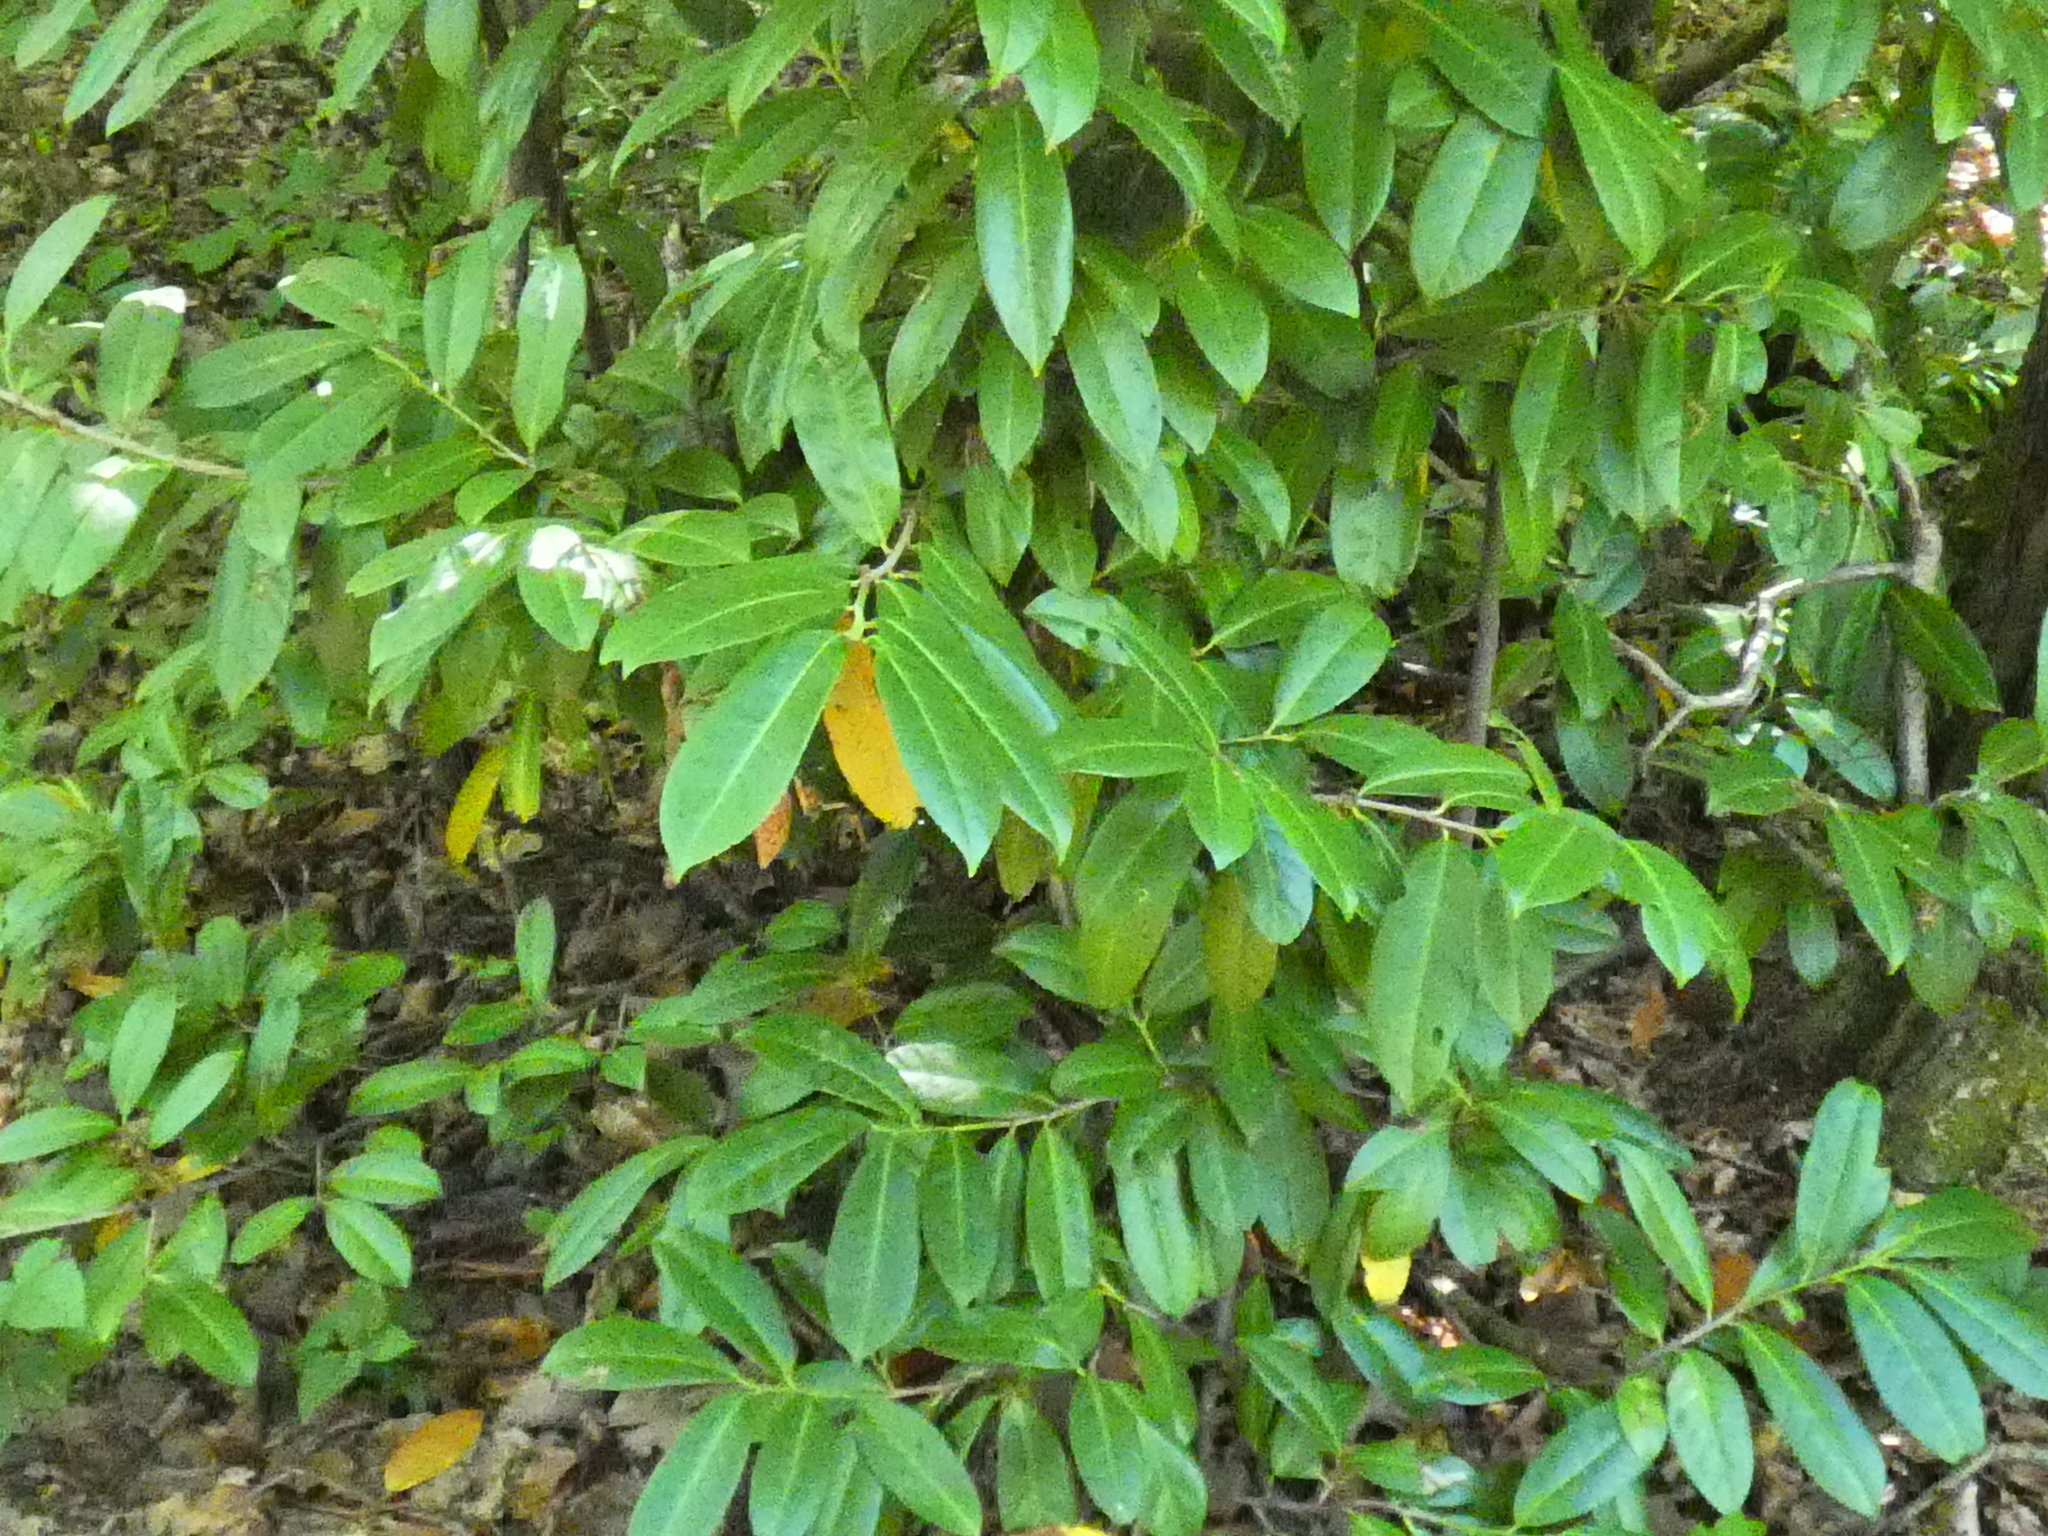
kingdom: Plantae
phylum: Tracheophyta
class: Magnoliopsida
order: Rosales
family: Rosaceae
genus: Prunus
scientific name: Prunus laurocerasus
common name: Cherry laurel
